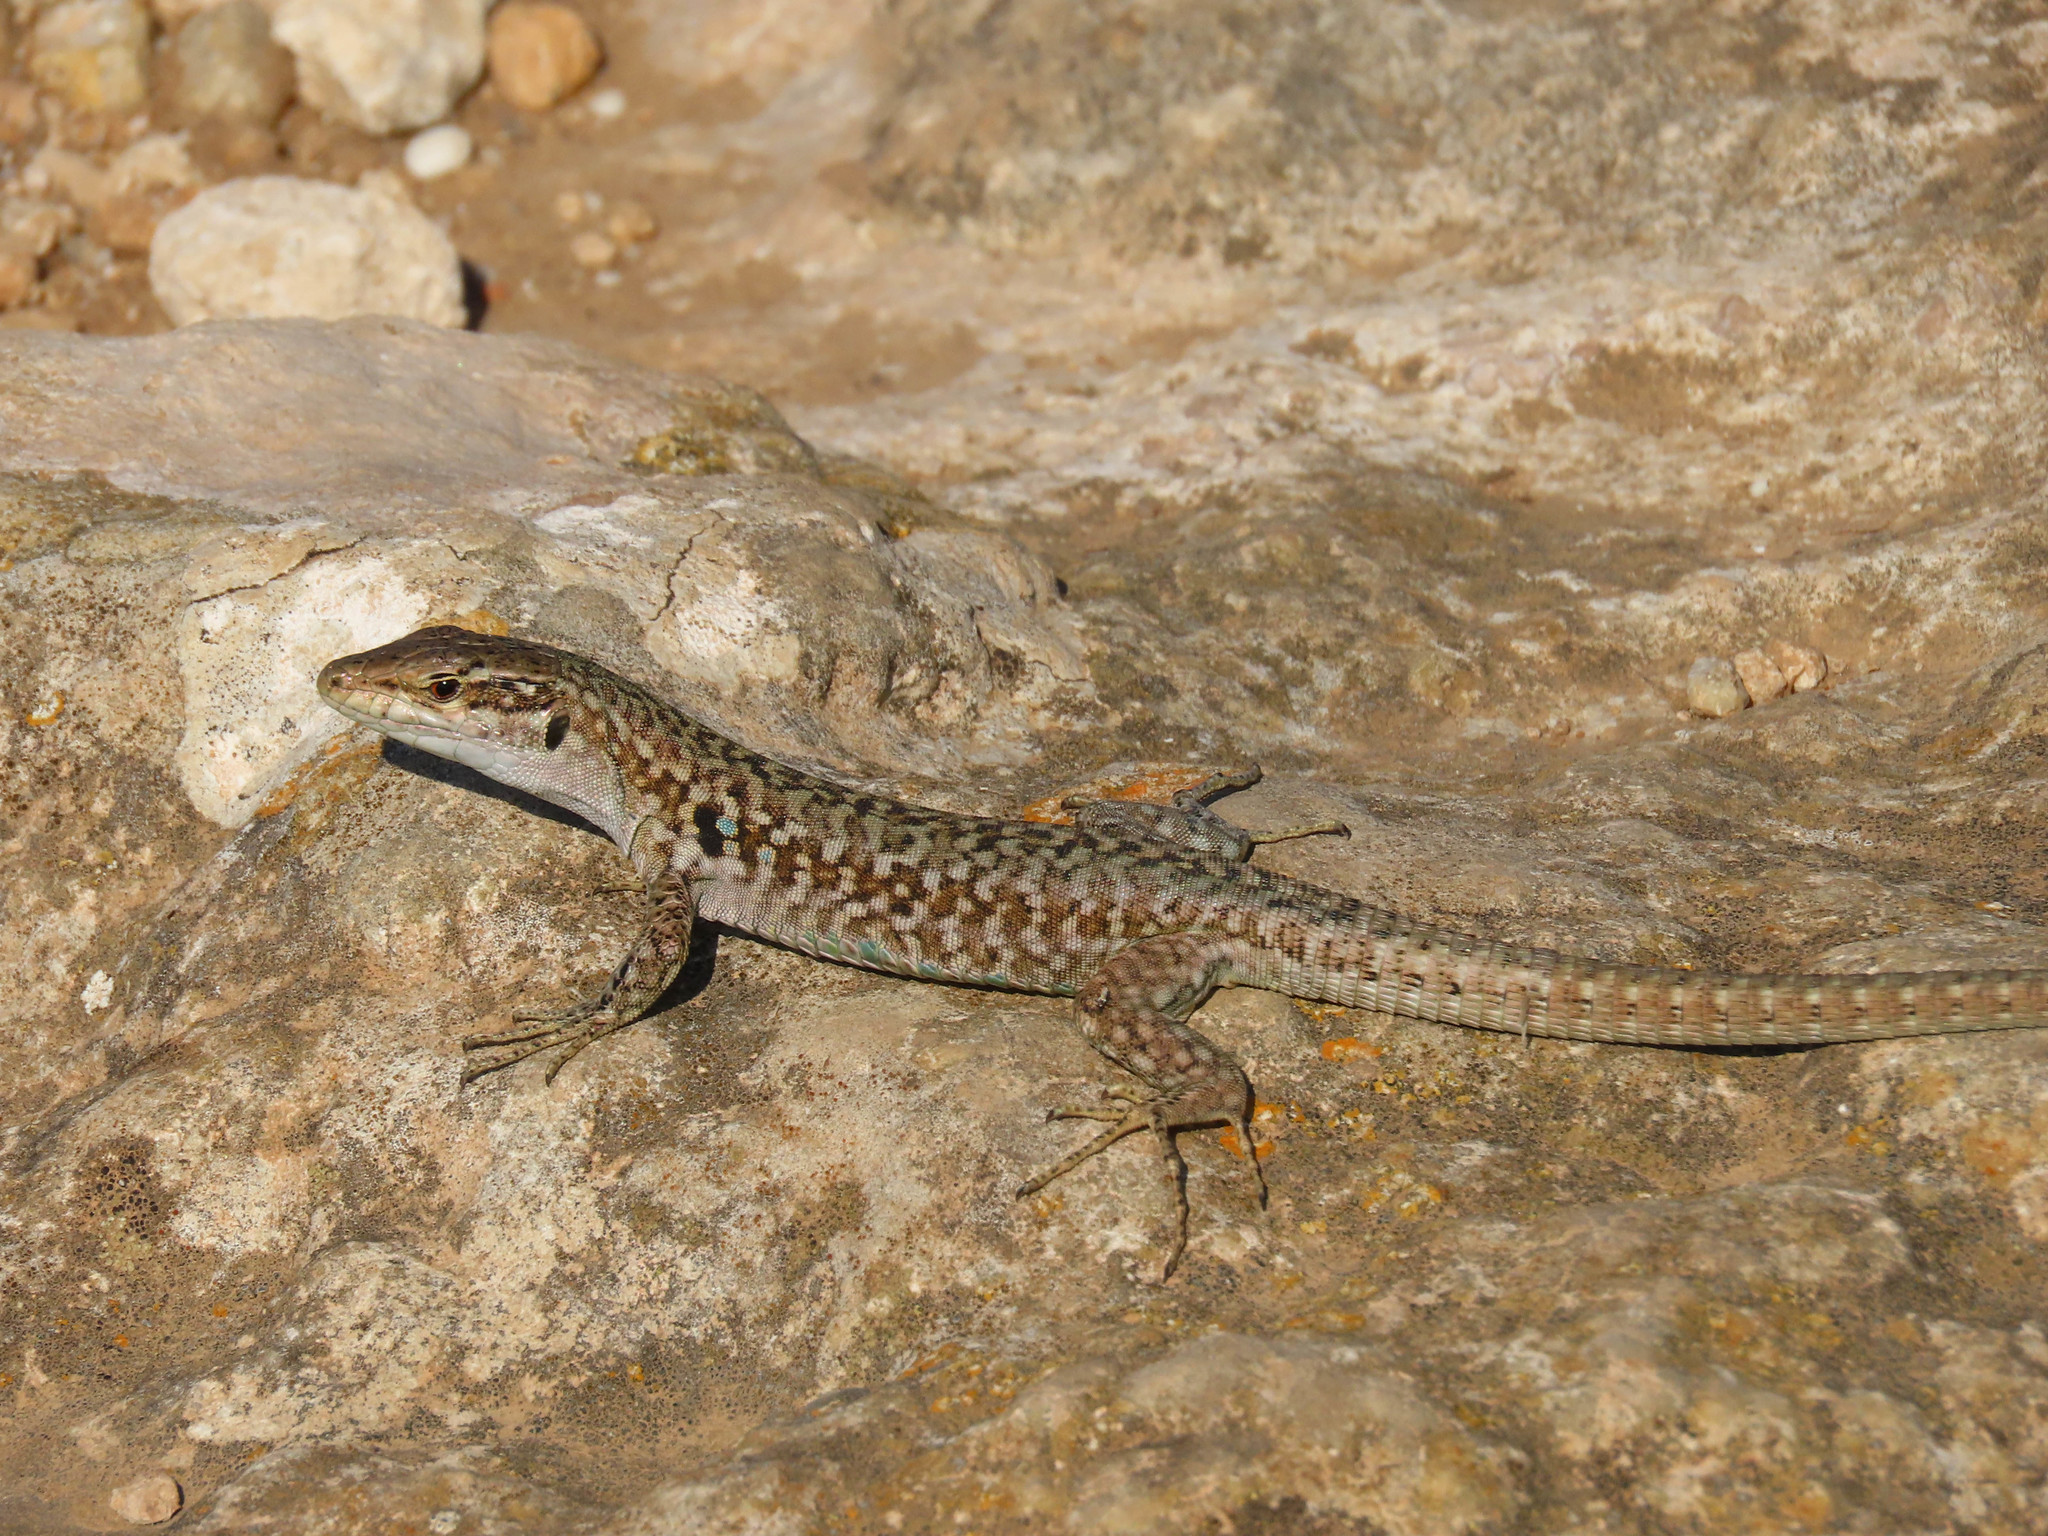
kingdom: Animalia
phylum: Chordata
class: Squamata
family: Lacertidae
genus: Podarcis
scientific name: Podarcis siculus
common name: Italian wall lizard
